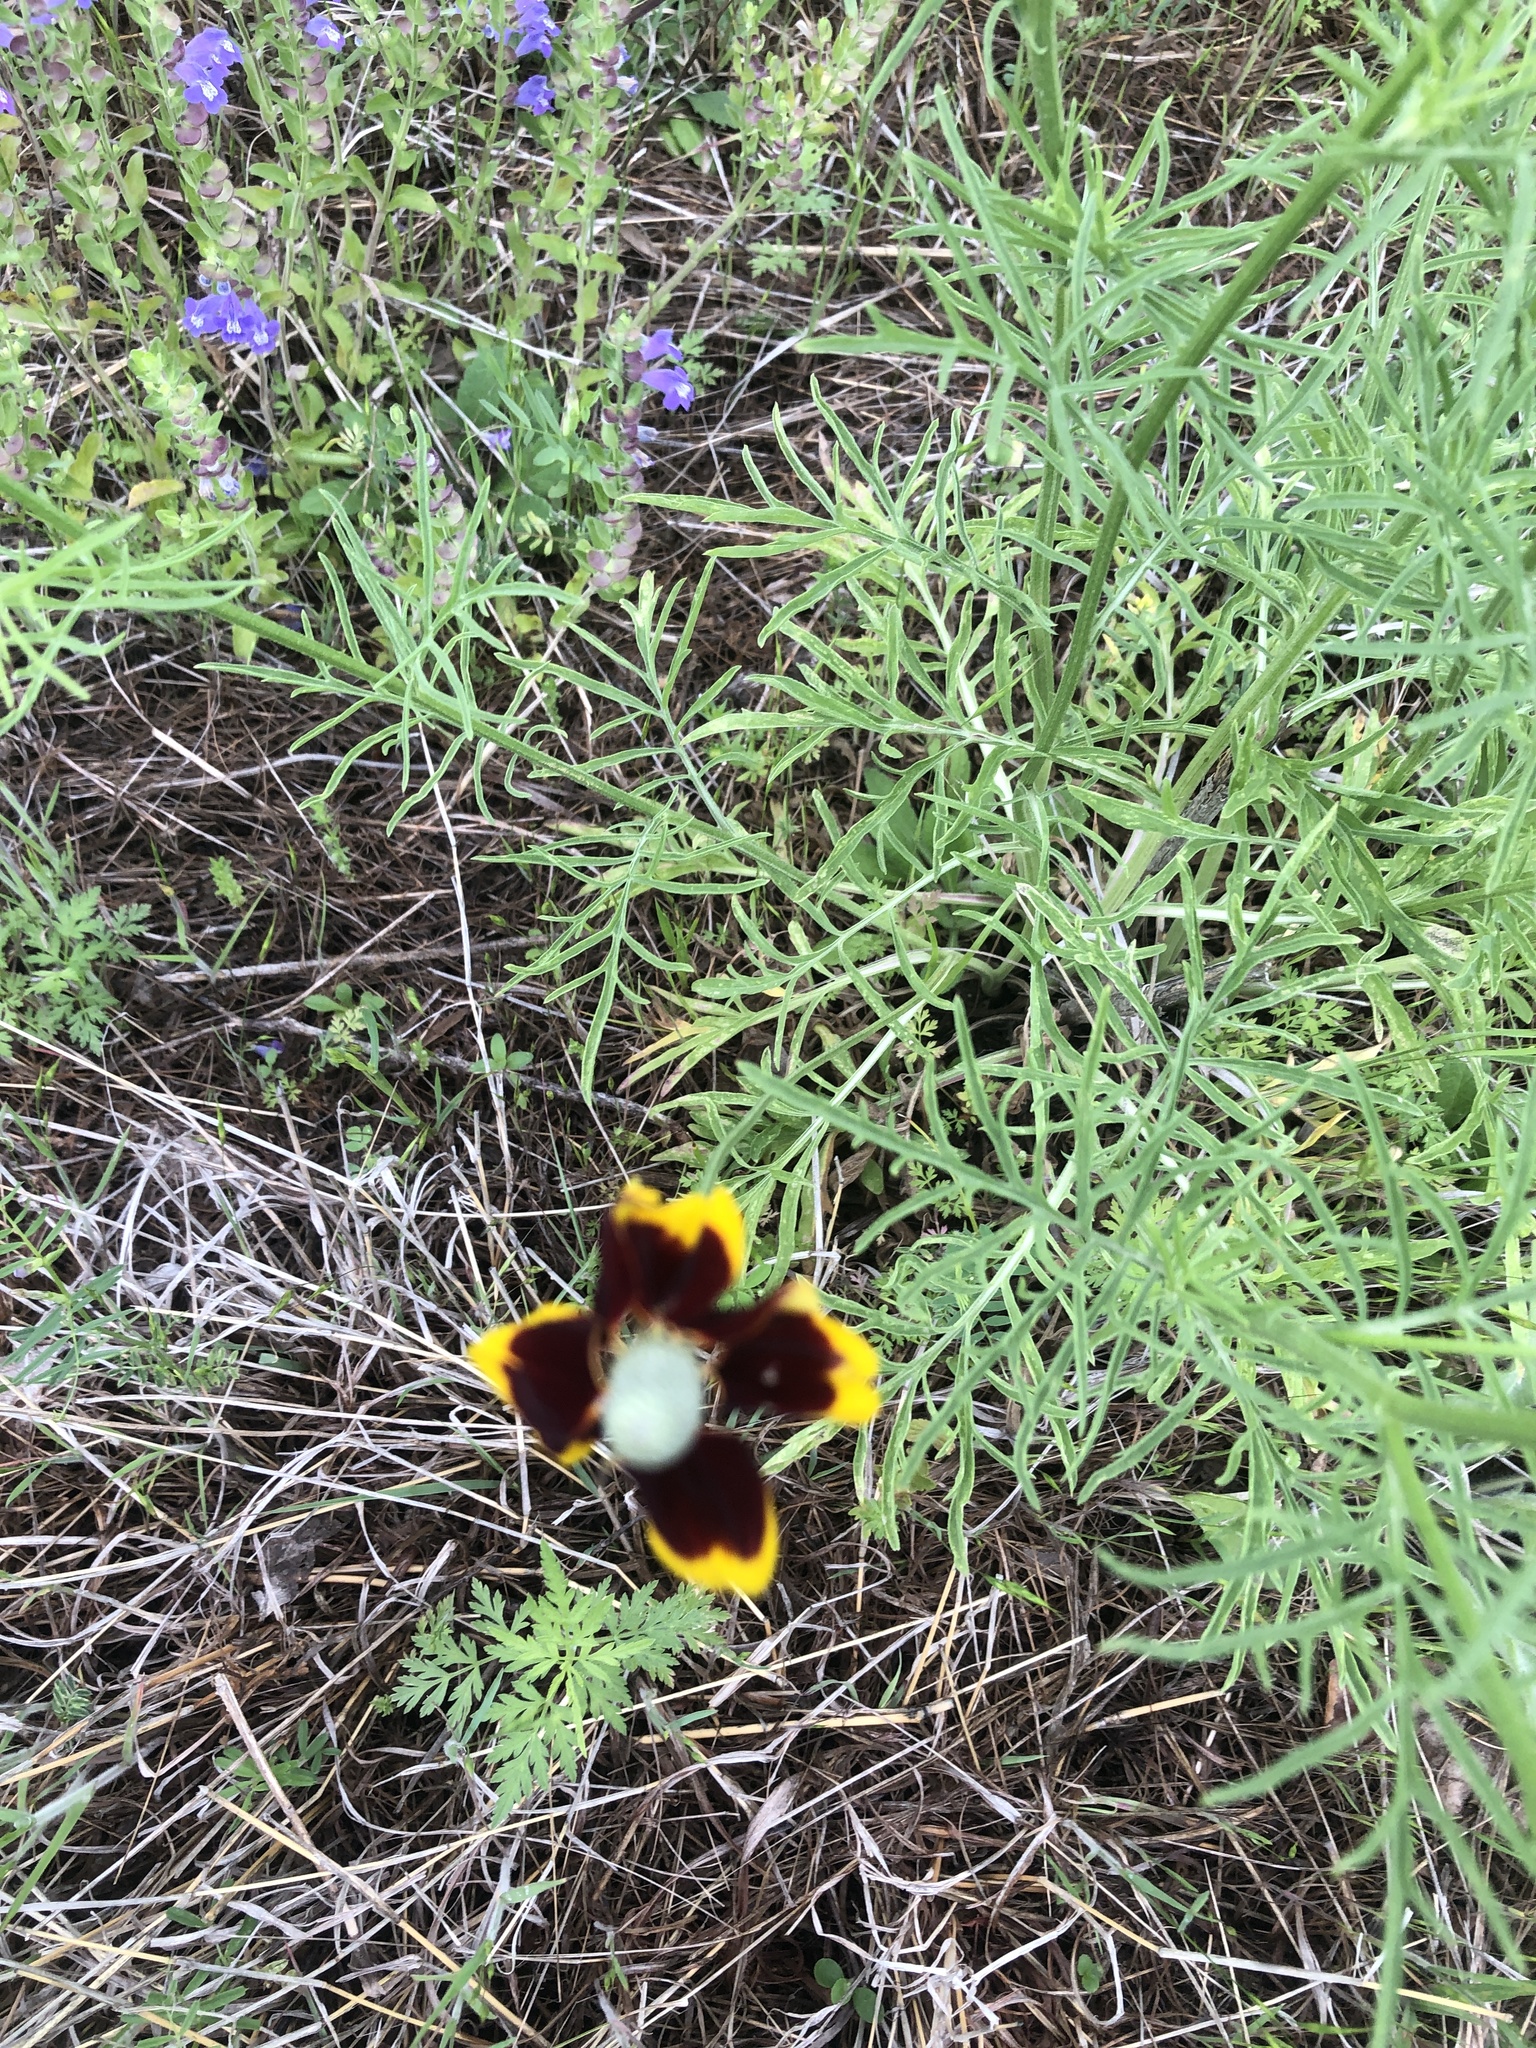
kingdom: Plantae
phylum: Tracheophyta
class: Magnoliopsida
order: Asterales
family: Asteraceae
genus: Ratibida
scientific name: Ratibida columnifera
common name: Prairie coneflower
